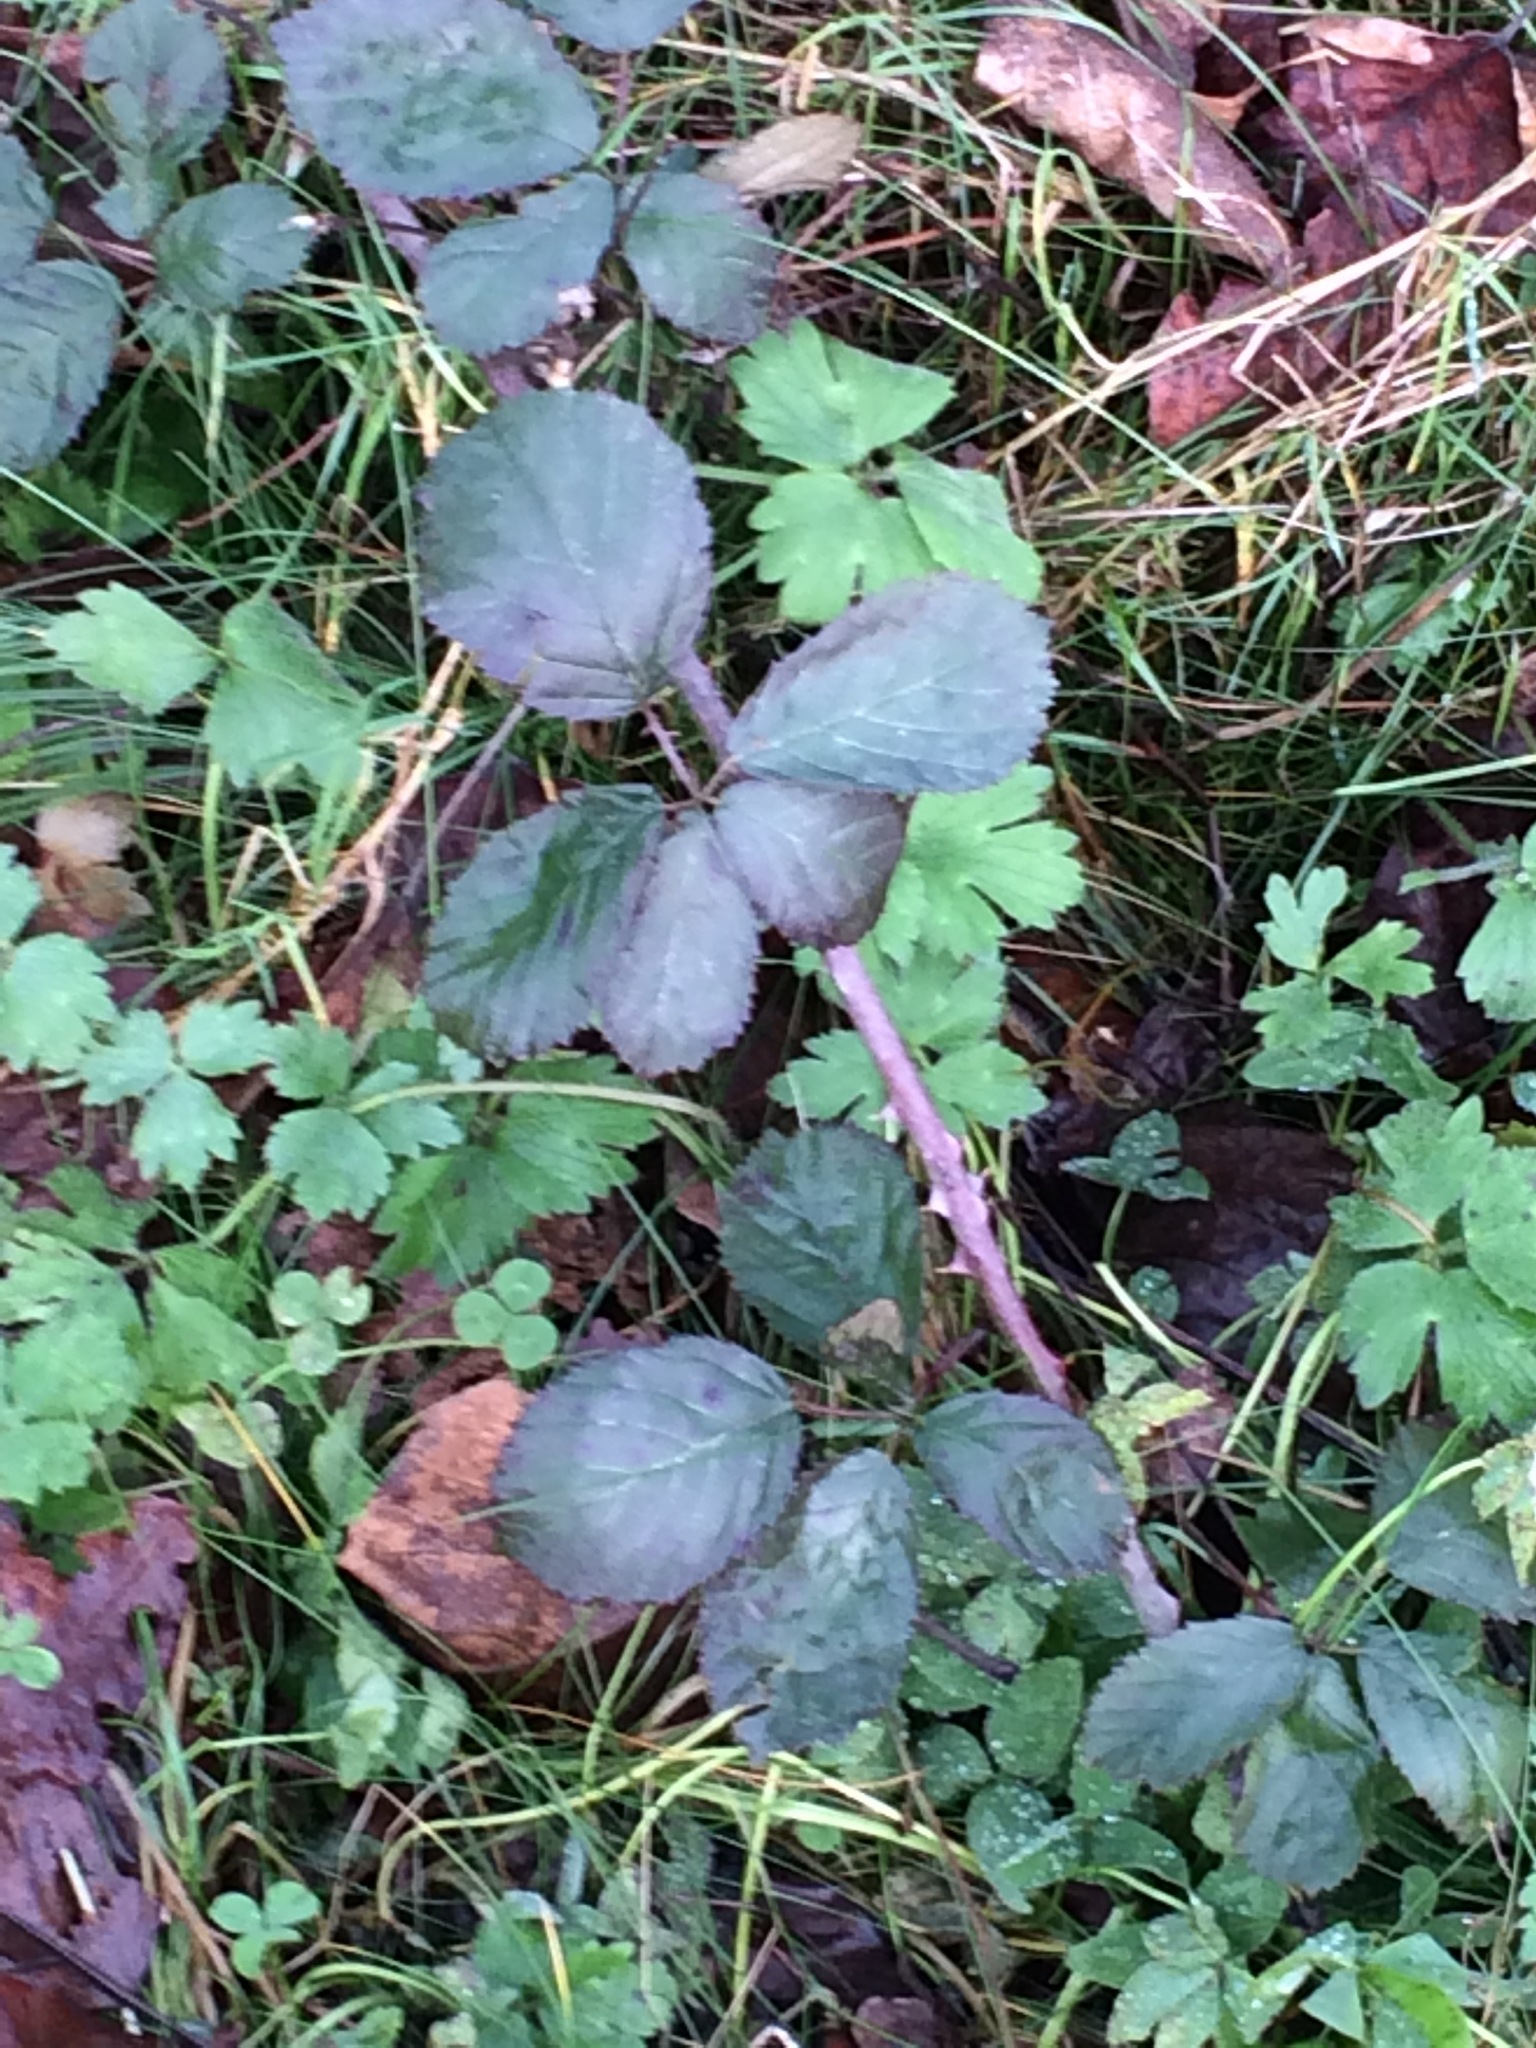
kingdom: Plantae
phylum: Tracheophyta
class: Magnoliopsida
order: Rosales
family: Rosaceae
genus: Rubus
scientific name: Rubus armeniacus
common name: Himalayan blackberry
